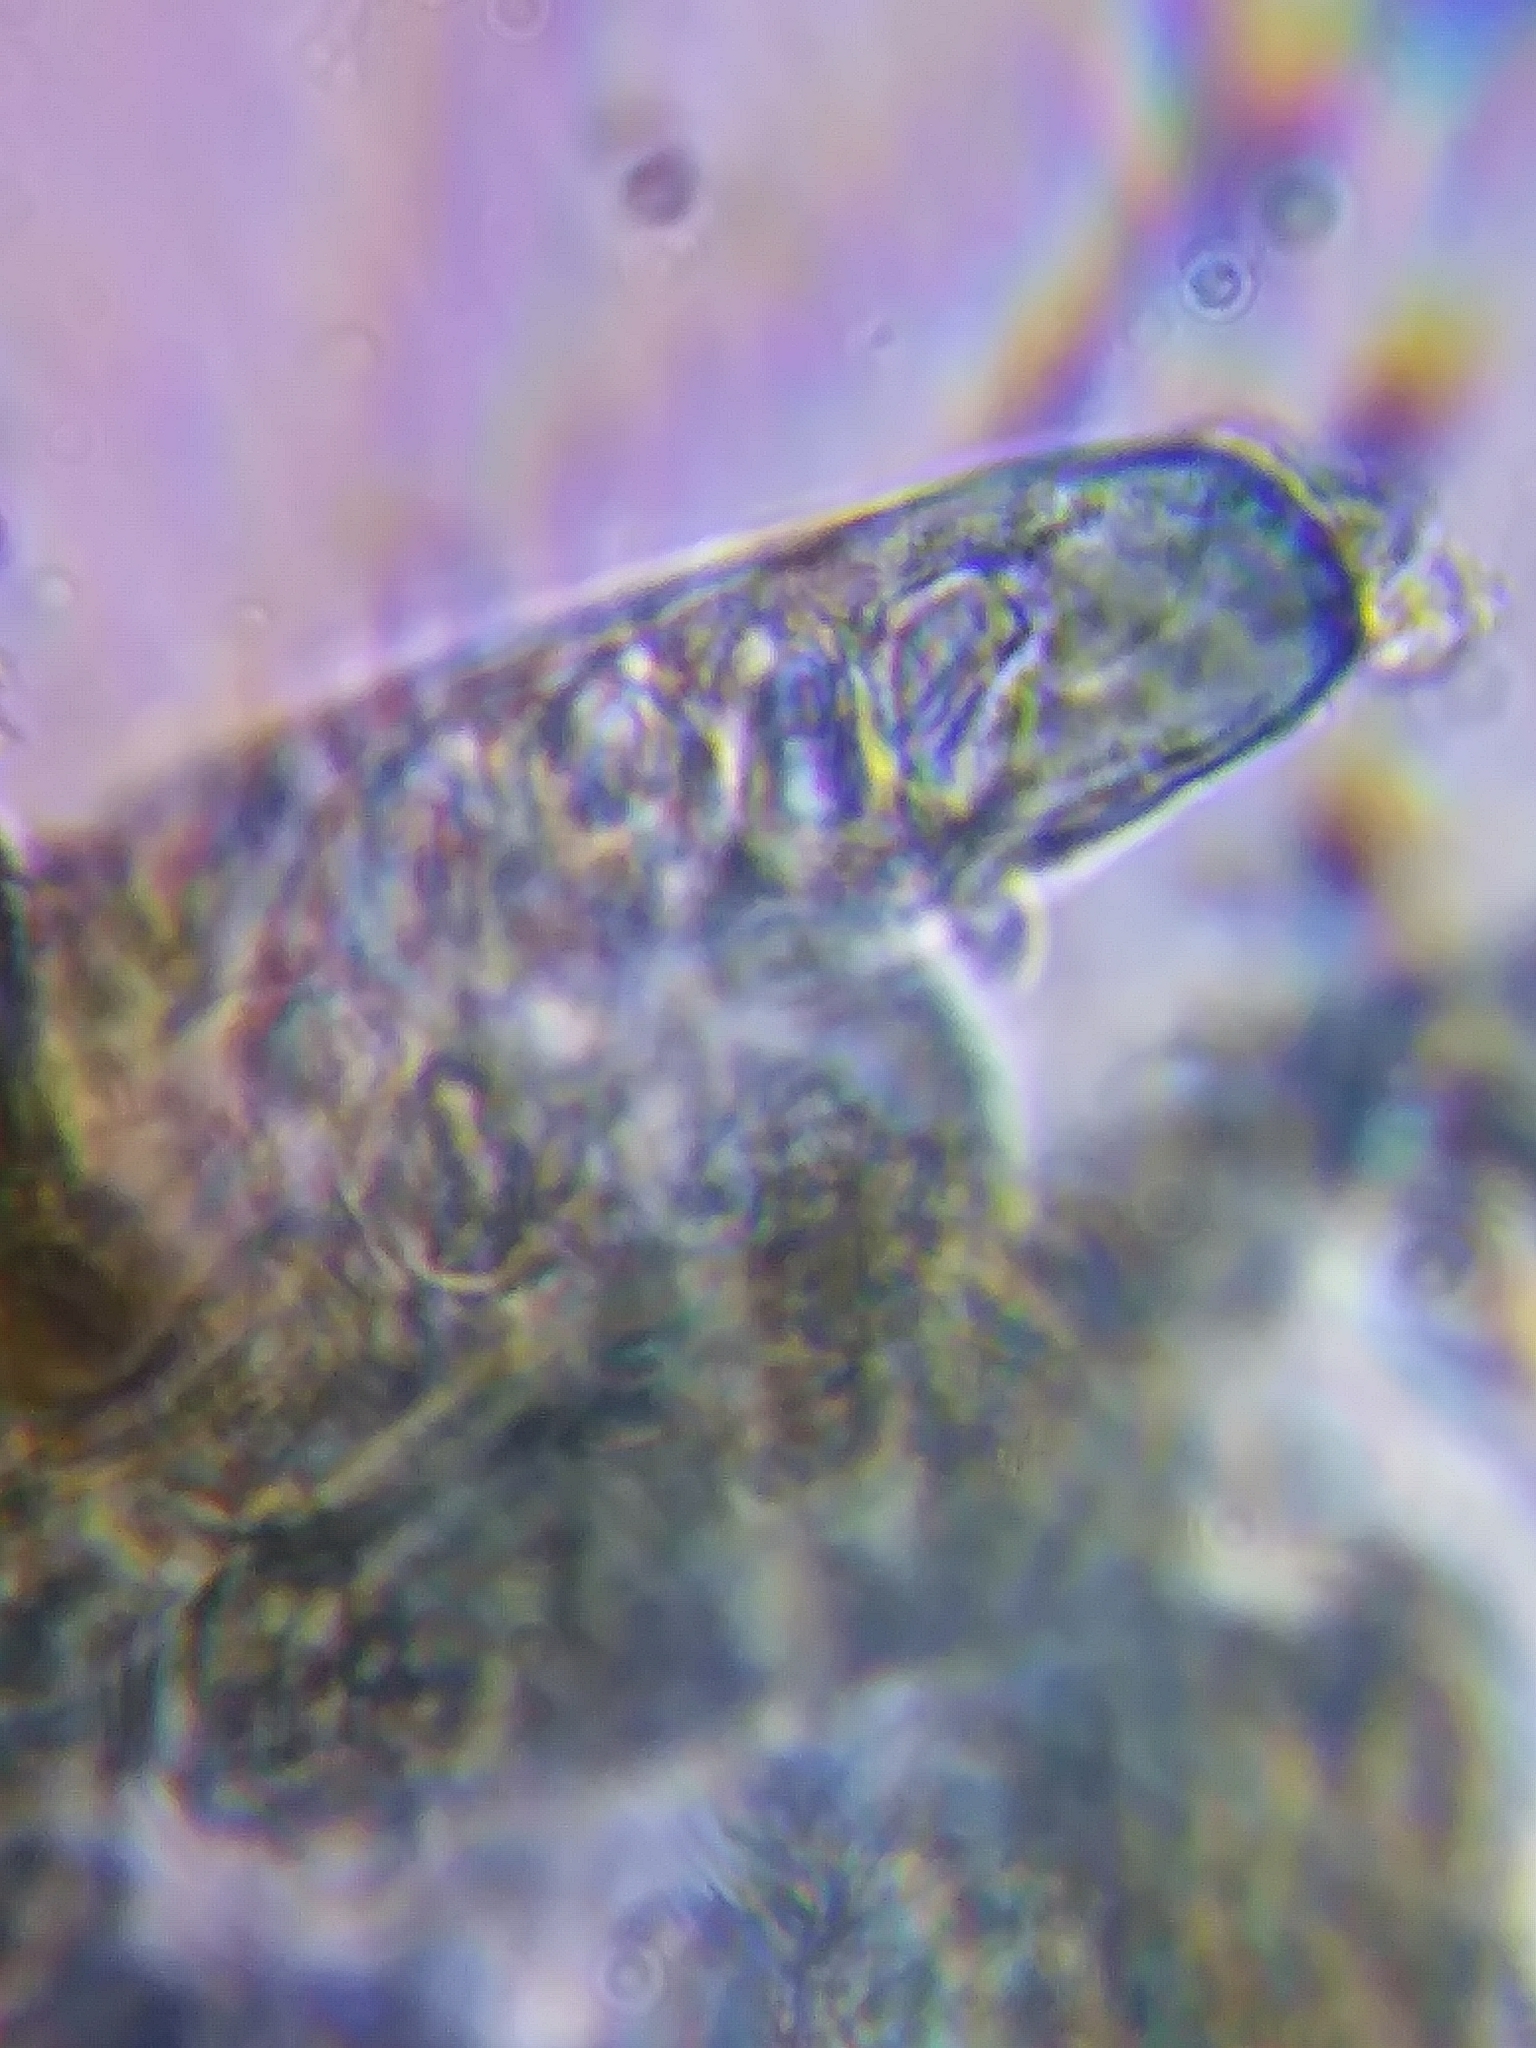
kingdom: Fungi
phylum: Ascomycota
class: Pezizomycetes
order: Pezizales
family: Morchellaceae
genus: Morchella
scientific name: Morchella punctipes
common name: Half-free morel
